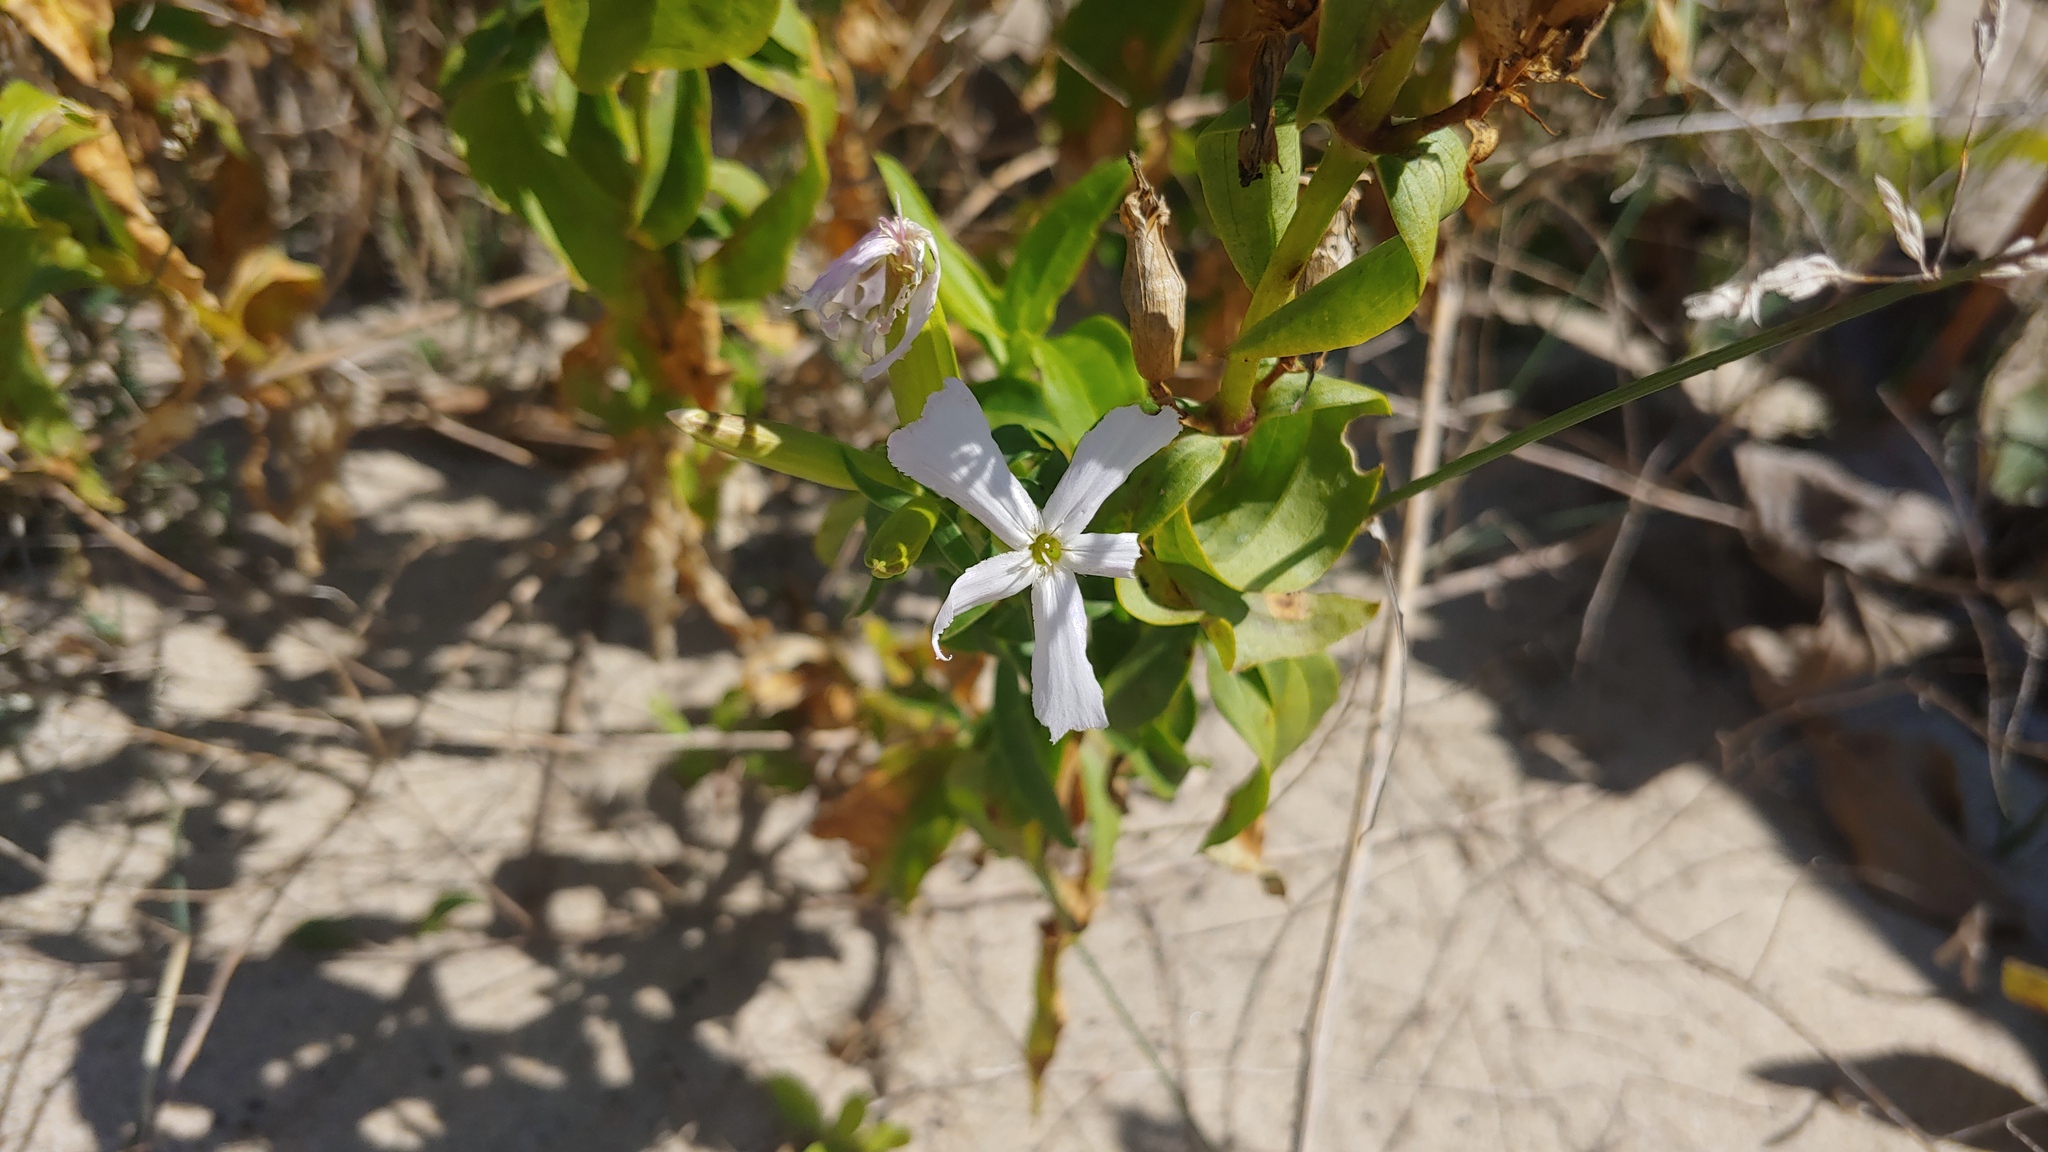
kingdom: Plantae
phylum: Tracheophyta
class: Magnoliopsida
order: Caryophyllales
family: Caryophyllaceae
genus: Saponaria
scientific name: Saponaria officinalis
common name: Soapwort
